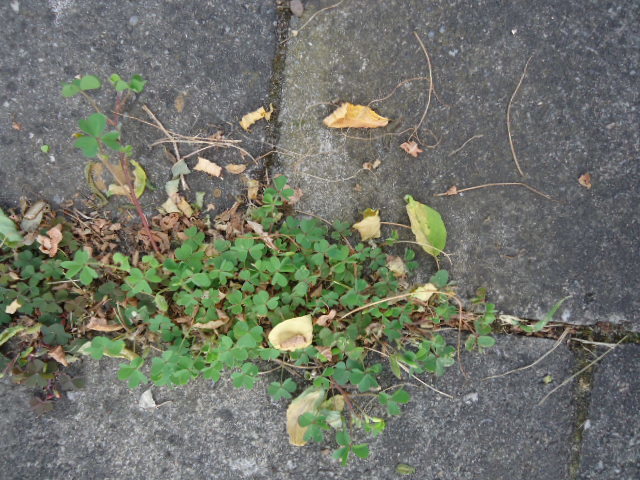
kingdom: Plantae
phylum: Tracheophyta
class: Magnoliopsida
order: Oxalidales
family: Oxalidaceae
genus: Oxalis
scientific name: Oxalis corniculata
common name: Procumbent yellow-sorrel
